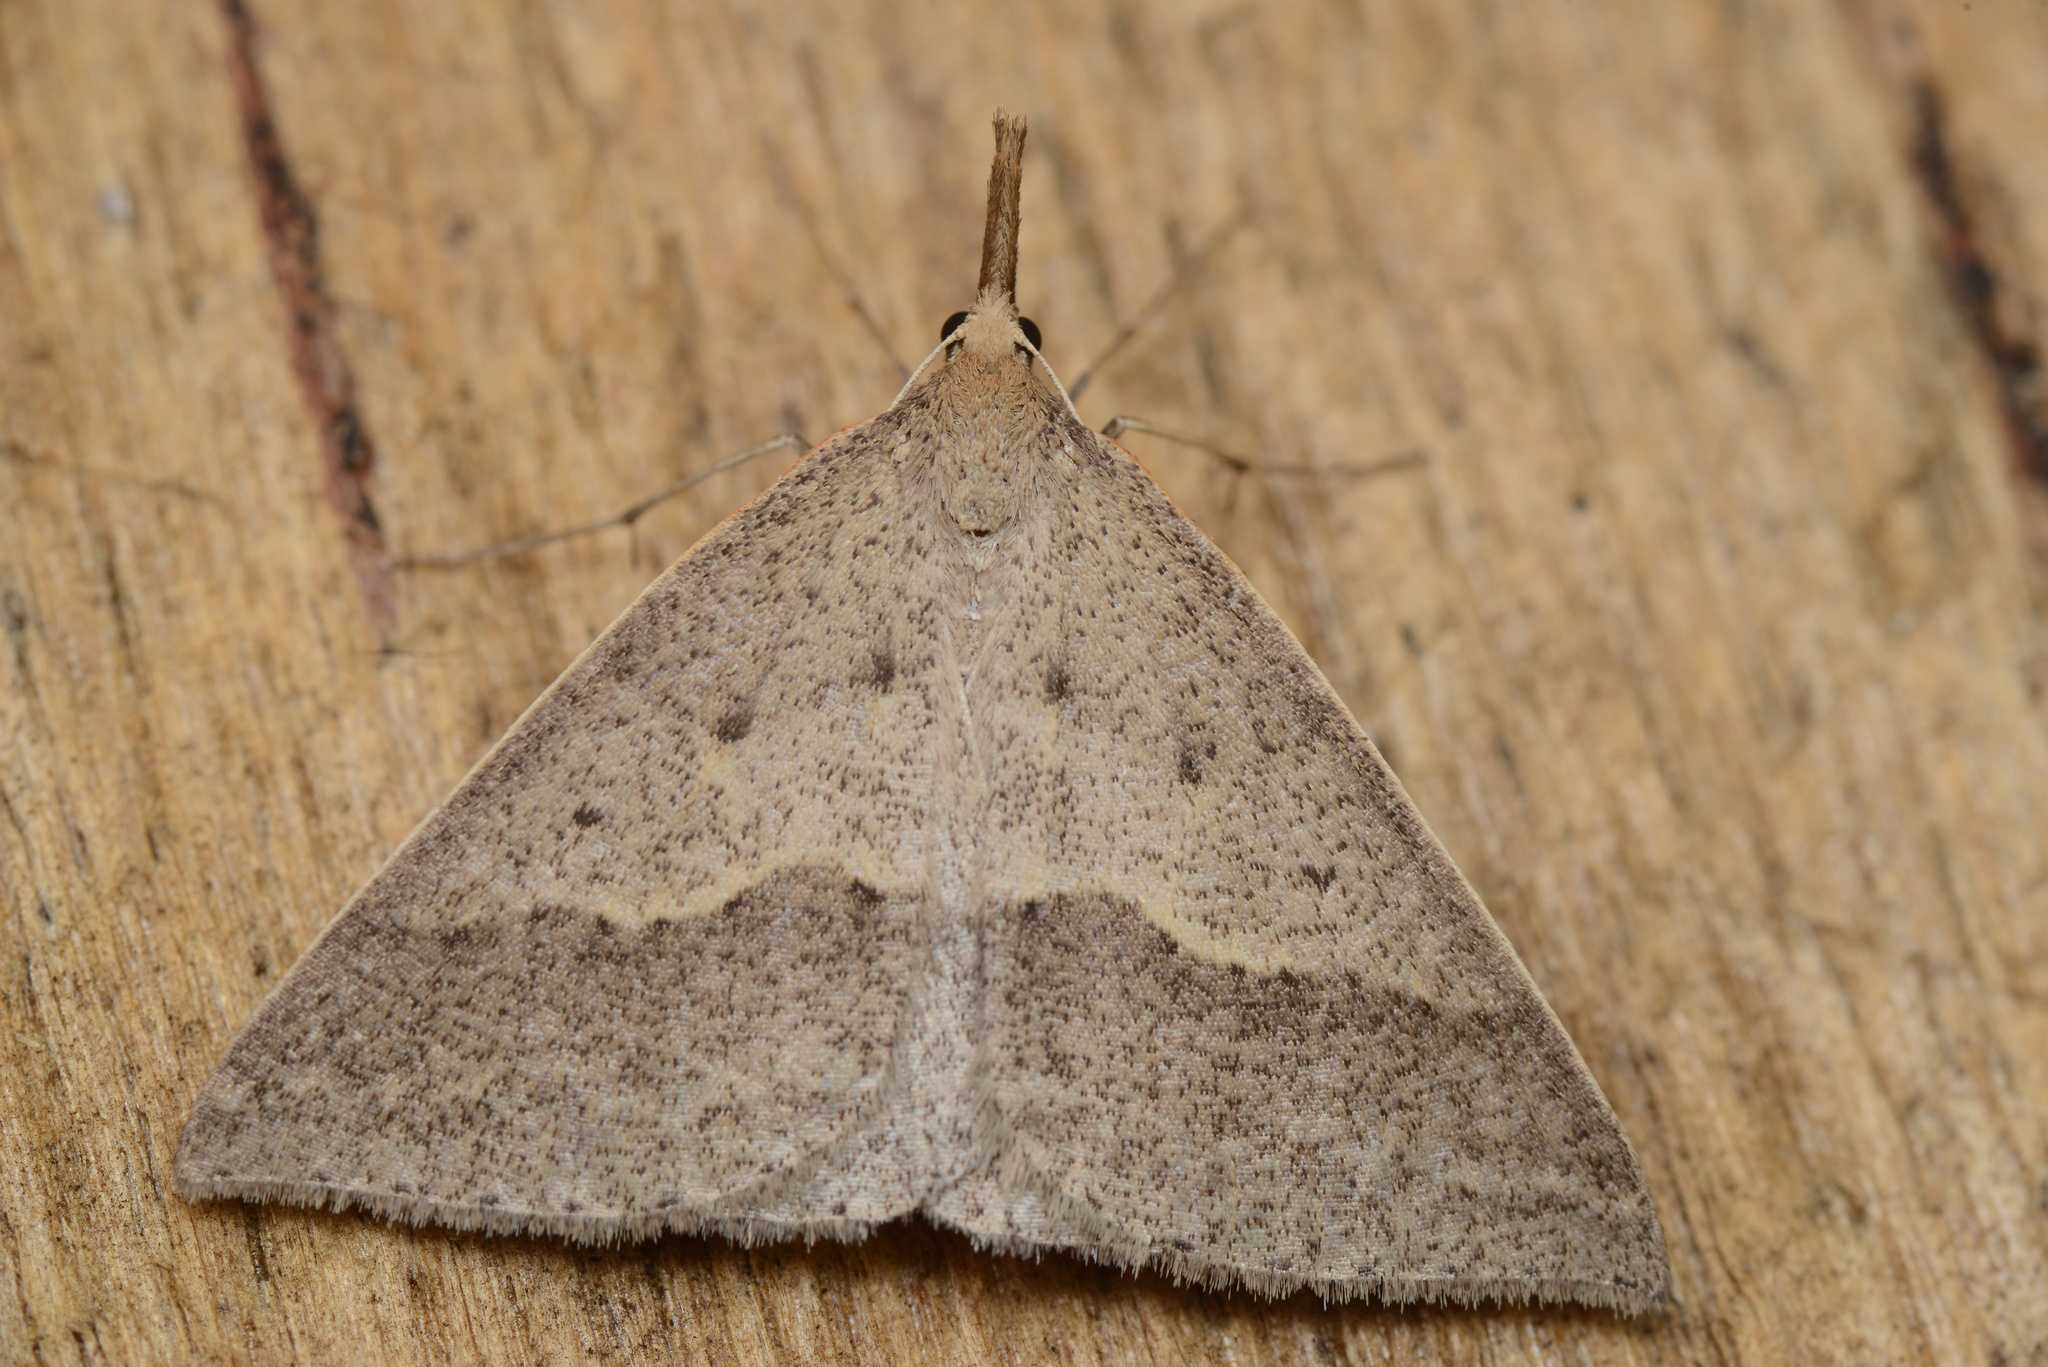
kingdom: Animalia
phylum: Arthropoda
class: Insecta
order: Lepidoptera
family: Geometridae
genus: Epidesmia
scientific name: Epidesmia hypenaria
